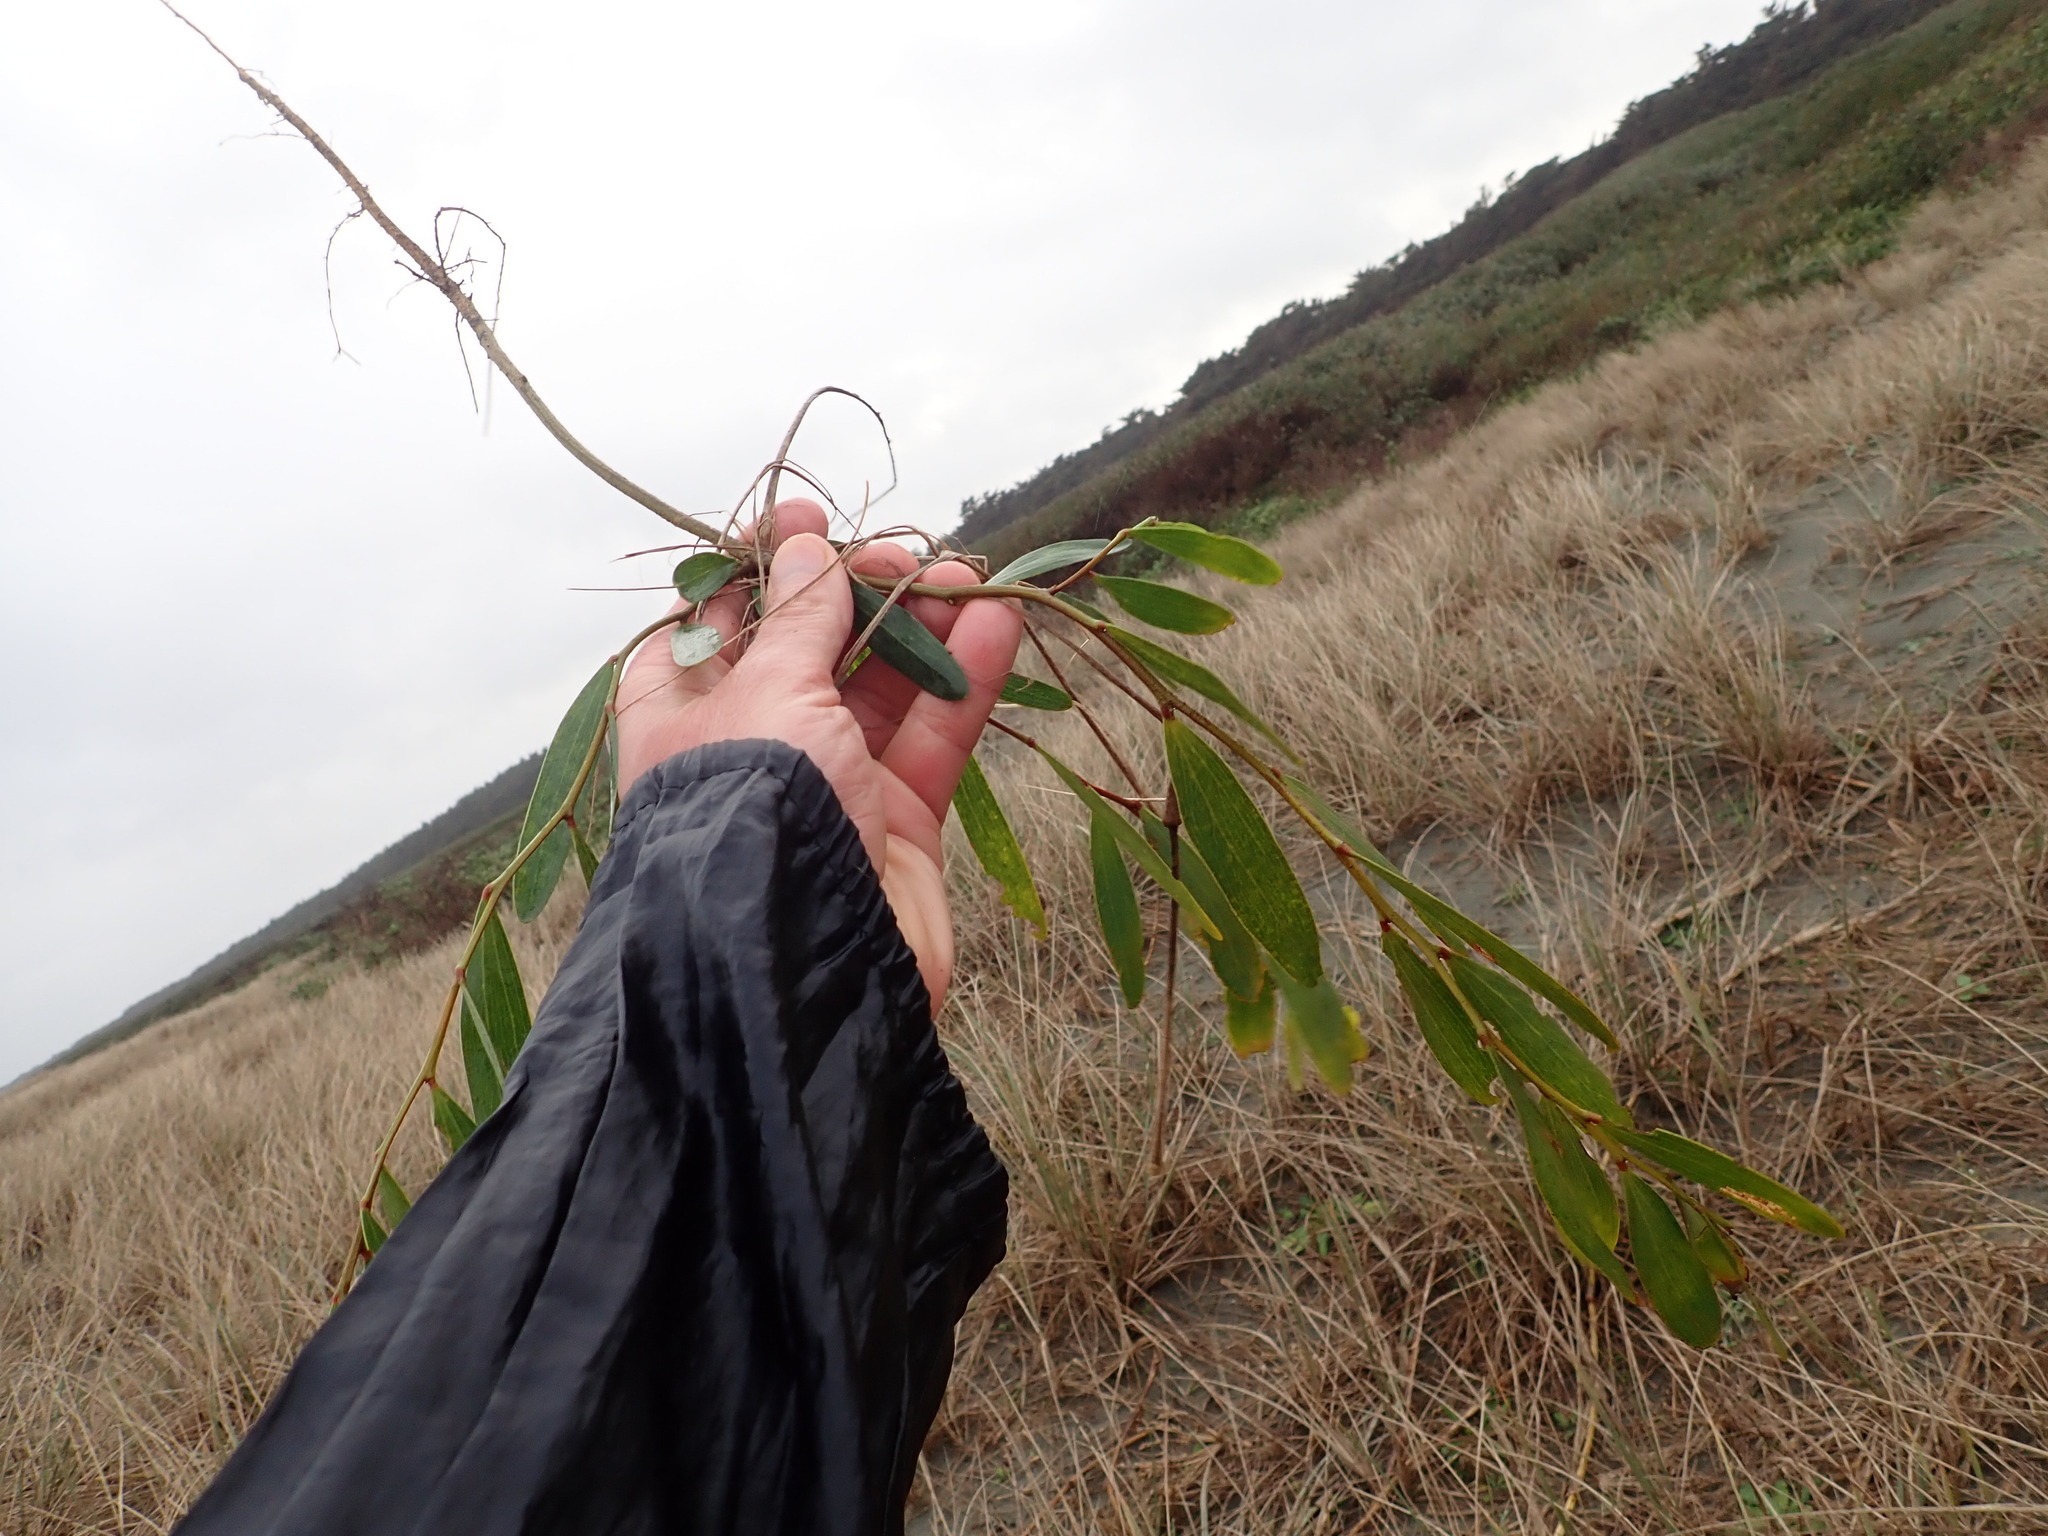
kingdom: Plantae
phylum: Tracheophyta
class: Magnoliopsida
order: Fabales
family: Fabaceae
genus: Acacia
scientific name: Acacia longifolia
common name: Sydney golden wattle
